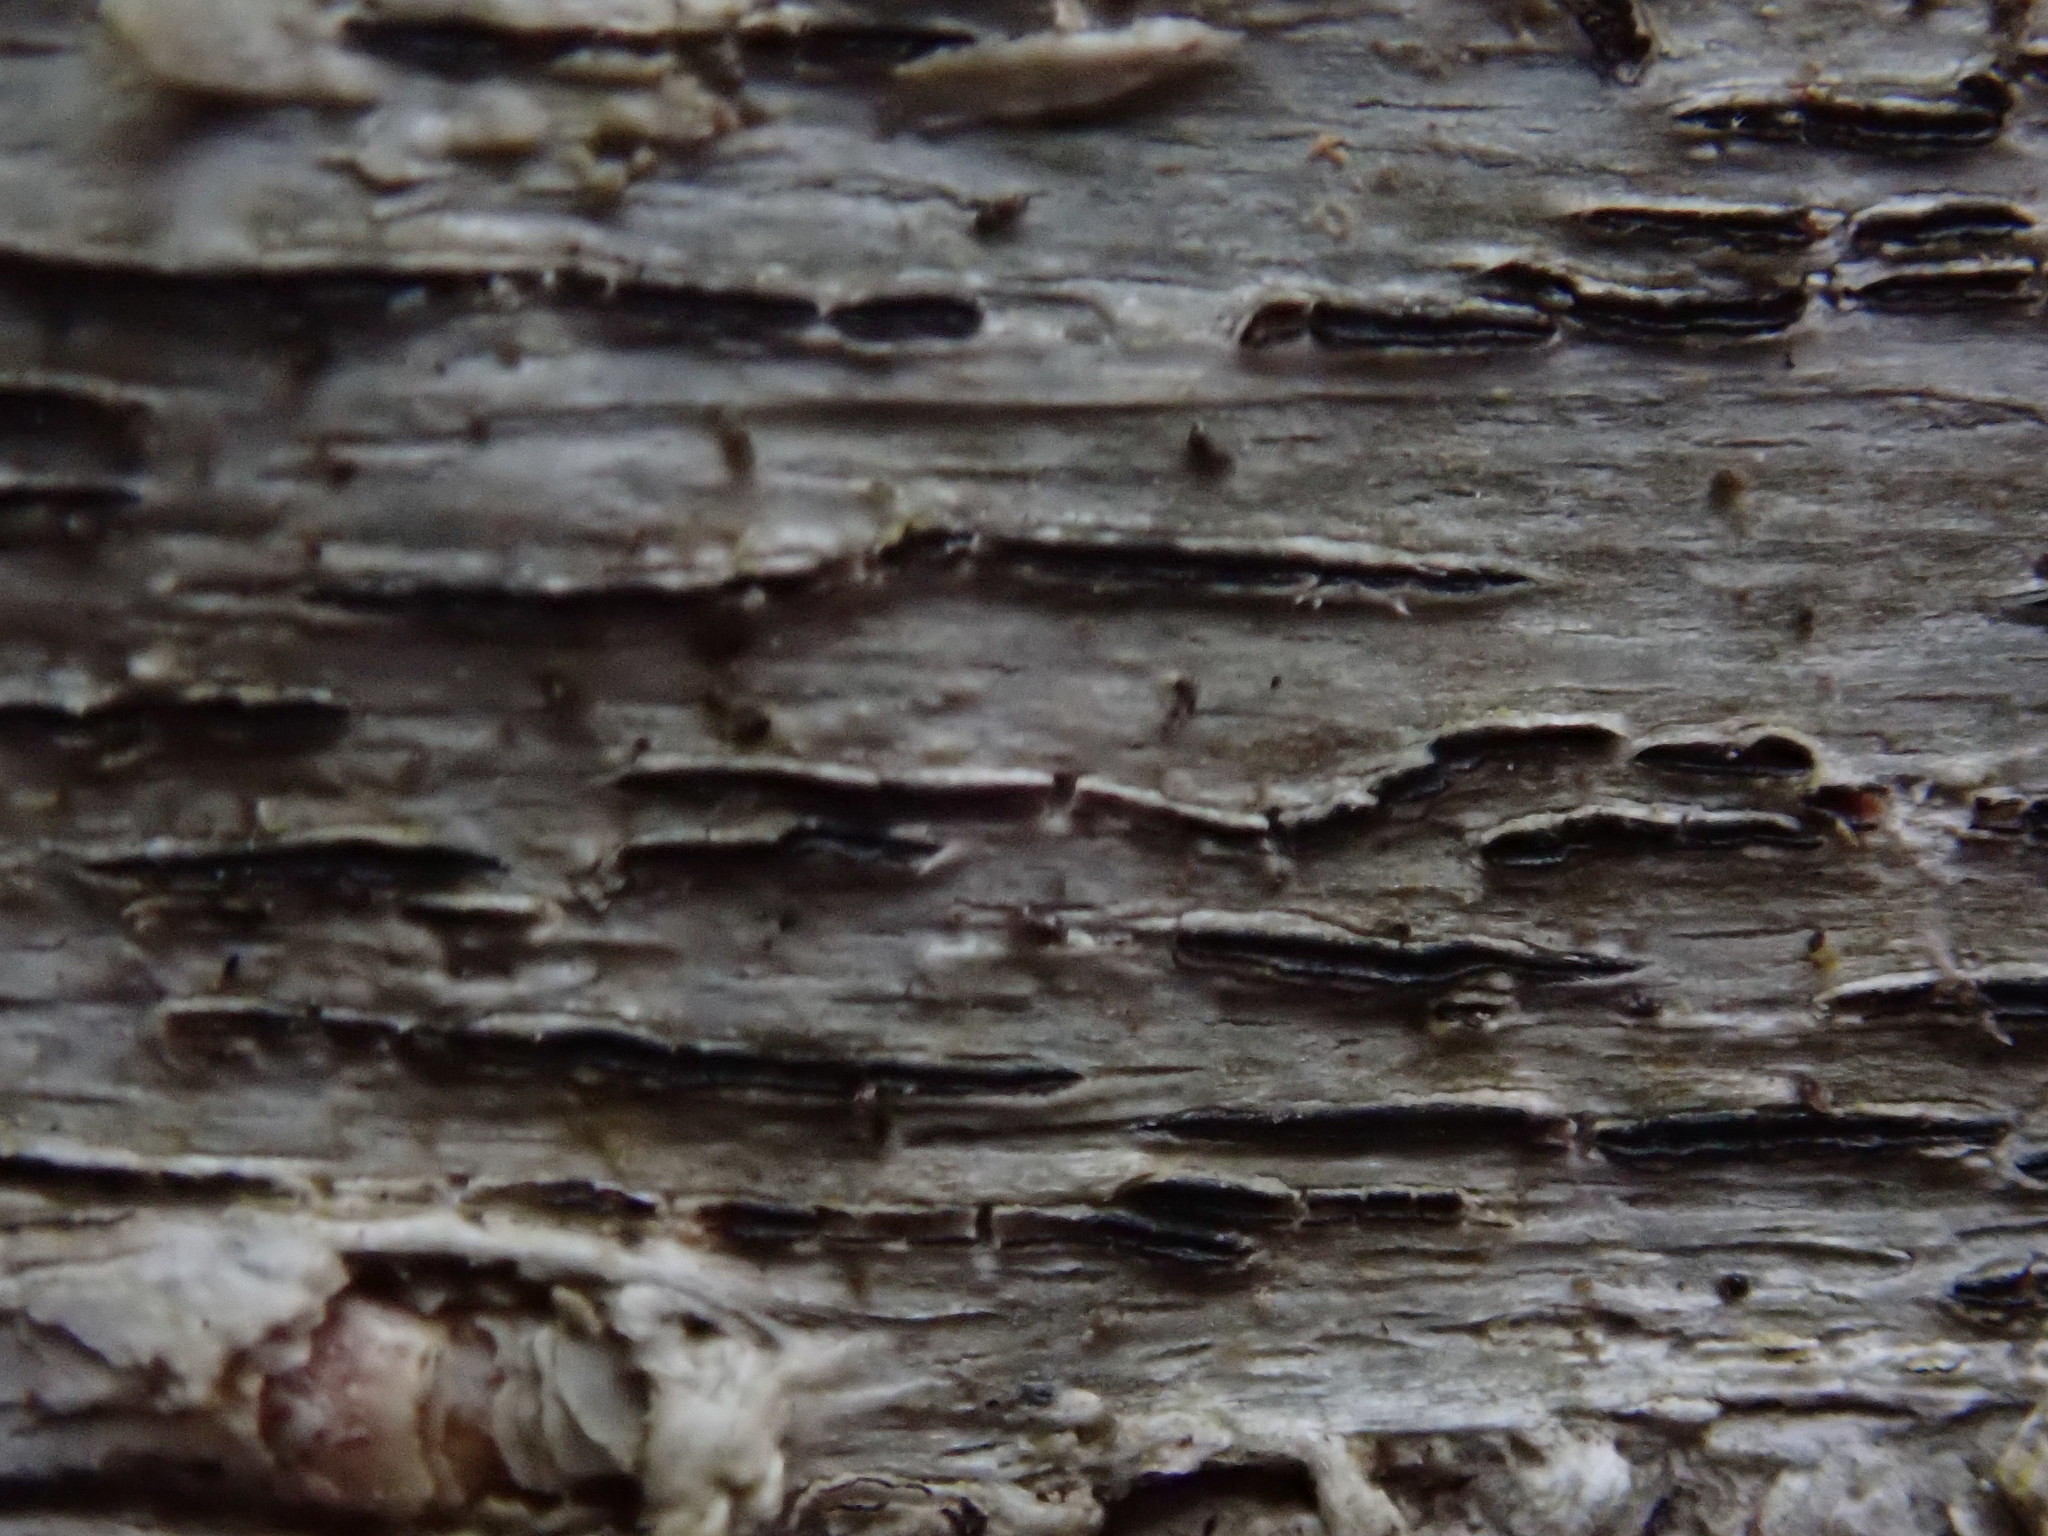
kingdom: Fungi
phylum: Ascomycota
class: Lecanoromycetes
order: Ostropales
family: Graphidaceae
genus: Graphis
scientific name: Graphis scripta
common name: Script lichen
